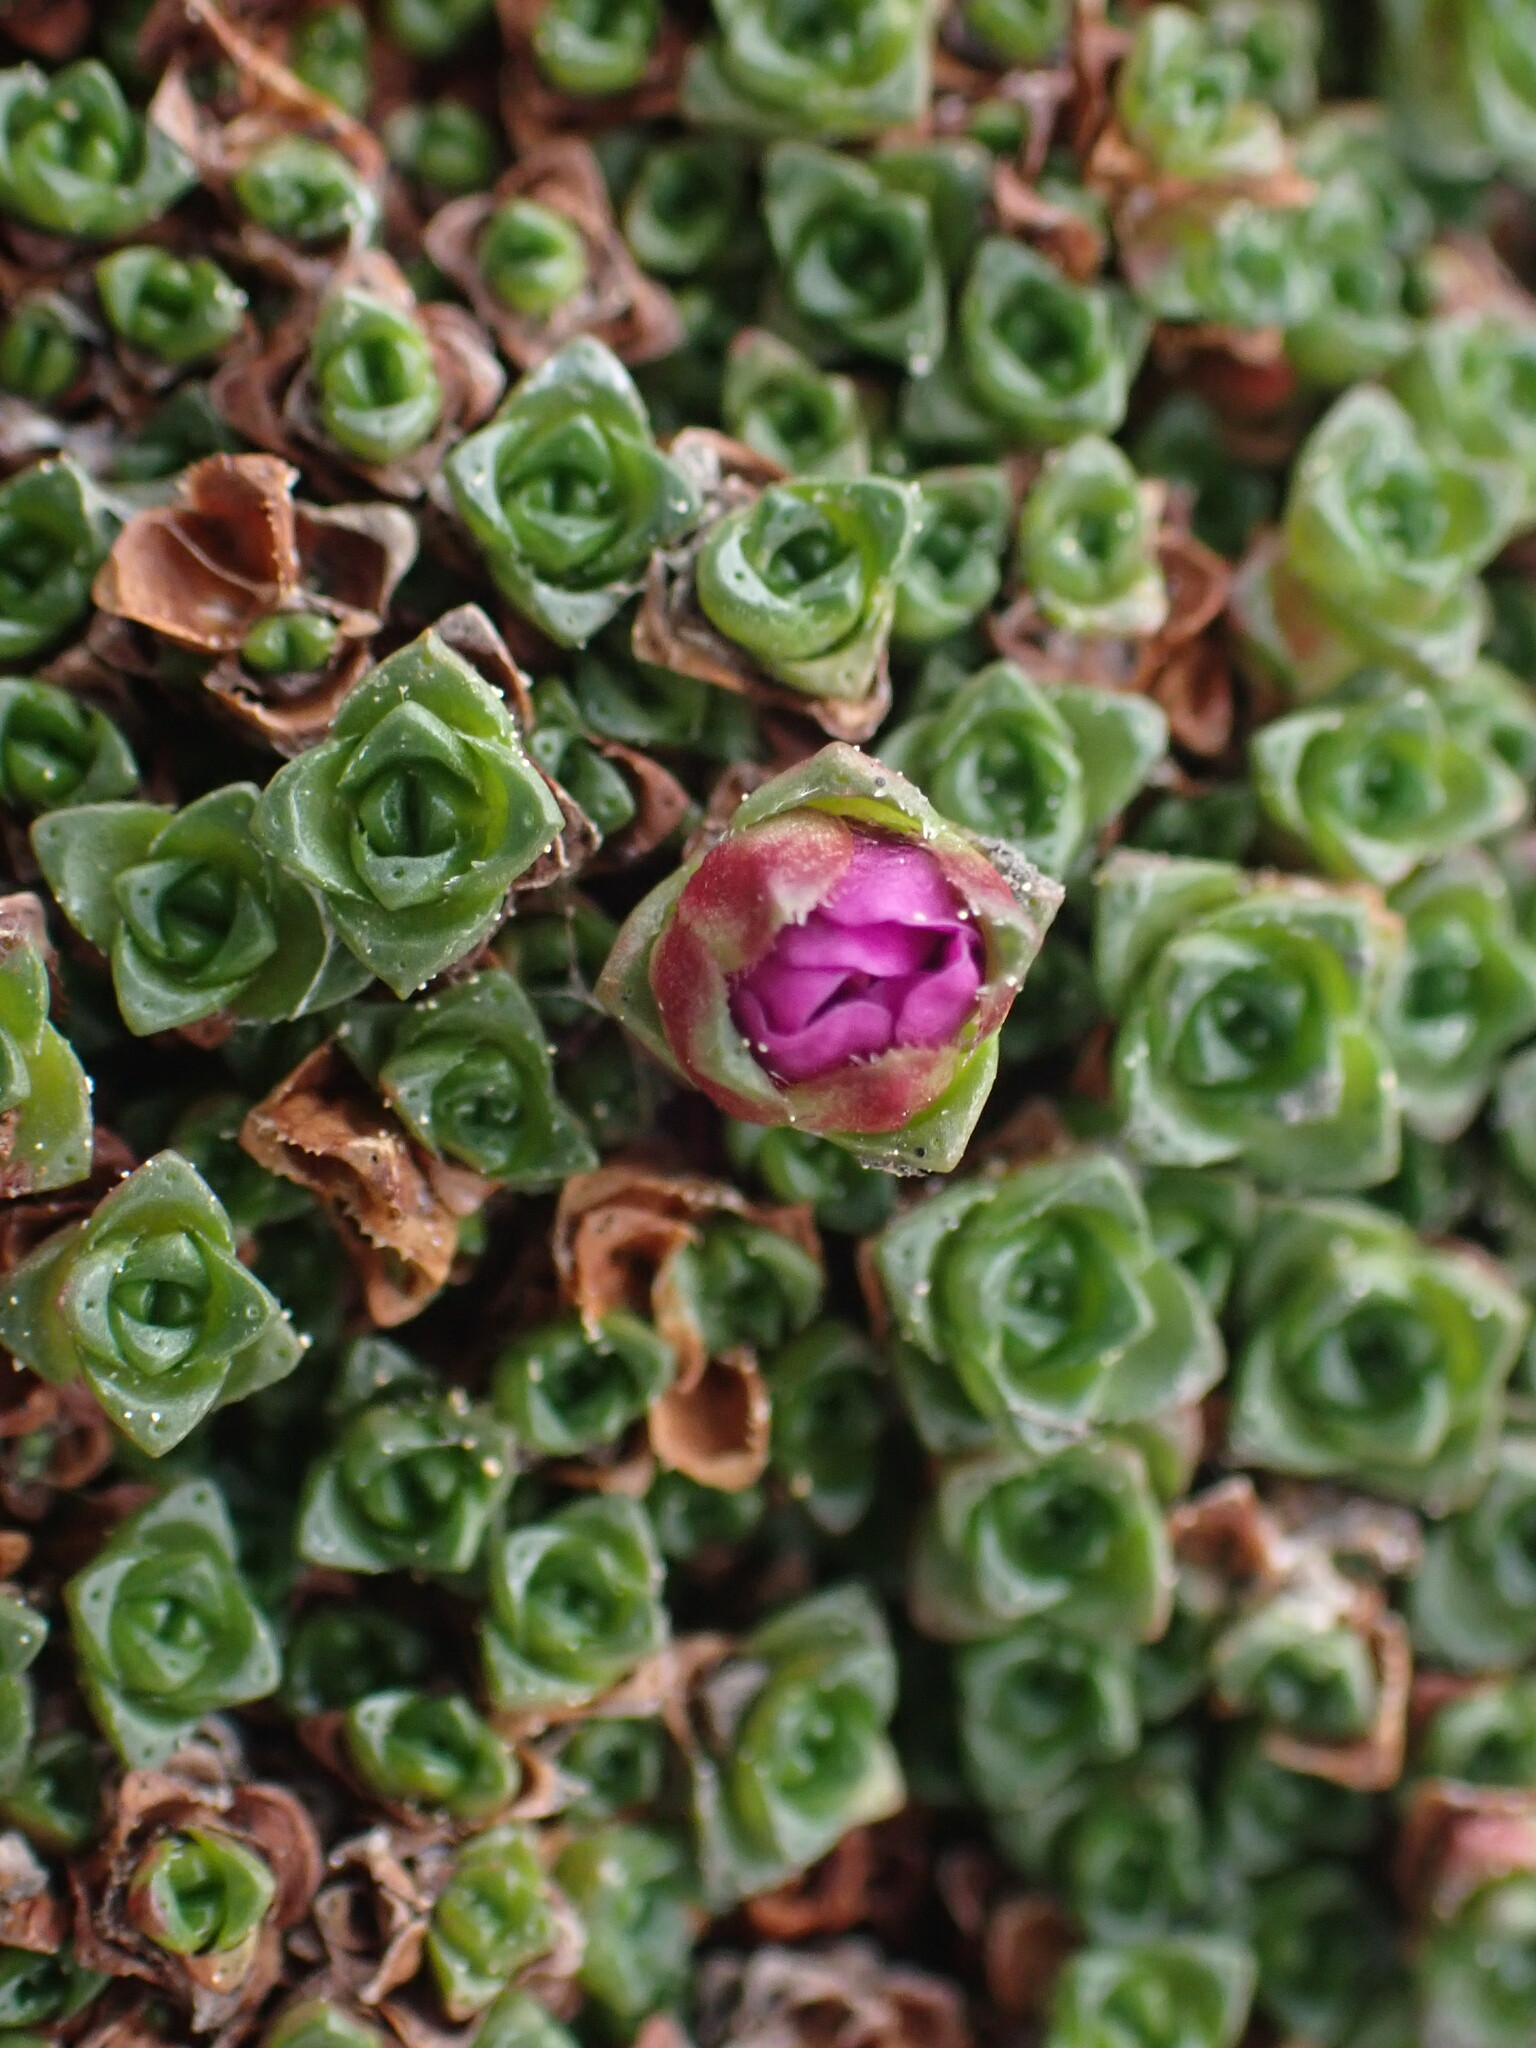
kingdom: Plantae
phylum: Tracheophyta
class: Magnoliopsida
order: Saxifragales
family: Saxifragaceae
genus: Saxifraga
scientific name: Saxifraga oppositifolia
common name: Purple saxifrage
